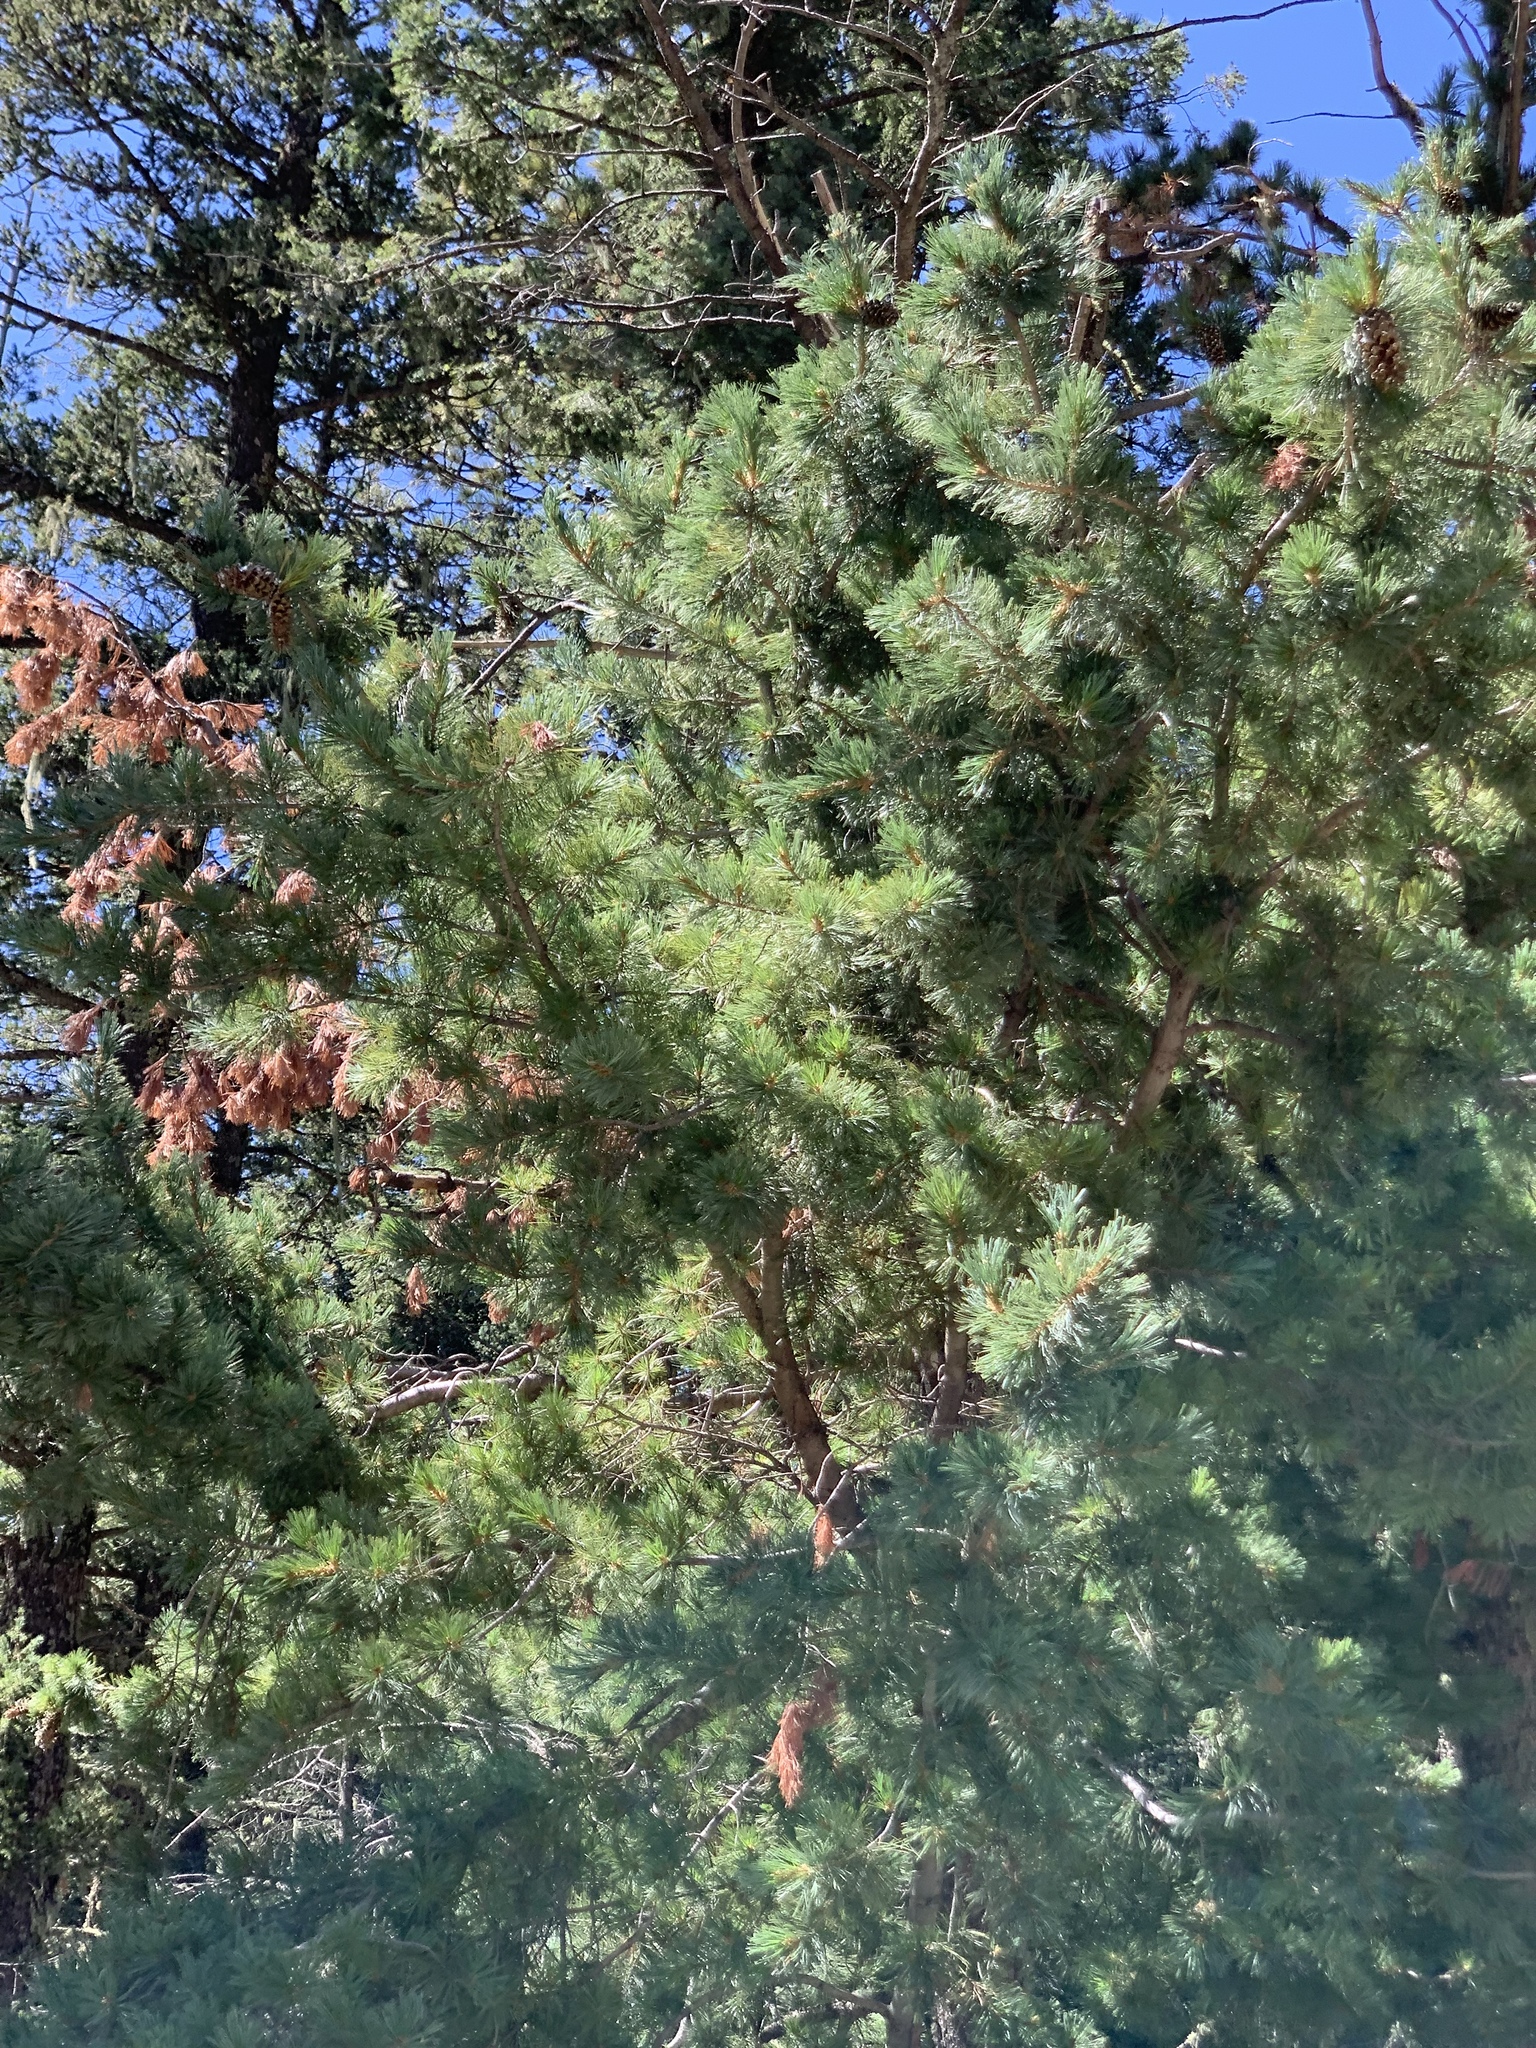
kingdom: Plantae
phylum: Tracheophyta
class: Pinopsida
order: Pinales
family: Pinaceae
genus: Pinus
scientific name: Pinus strobiformis
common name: Southwestern white pine
